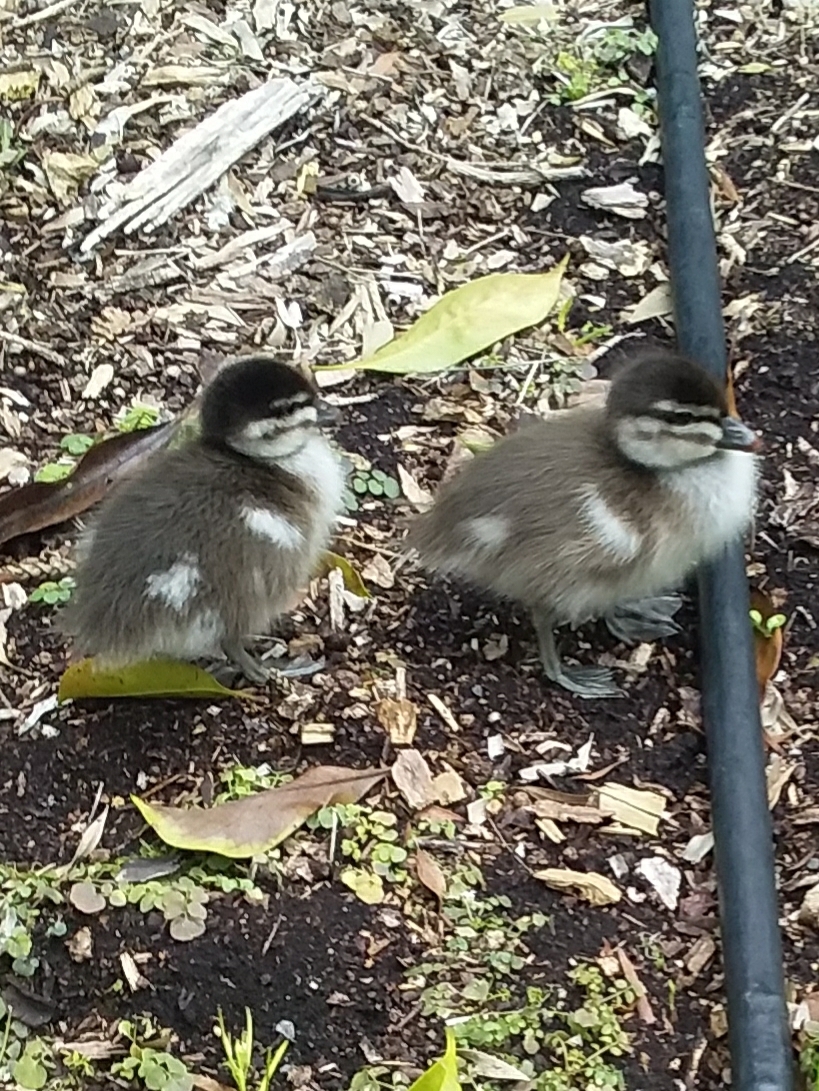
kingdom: Animalia
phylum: Chordata
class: Aves
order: Anseriformes
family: Anatidae
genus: Chenonetta
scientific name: Chenonetta jubata
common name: Maned duck
